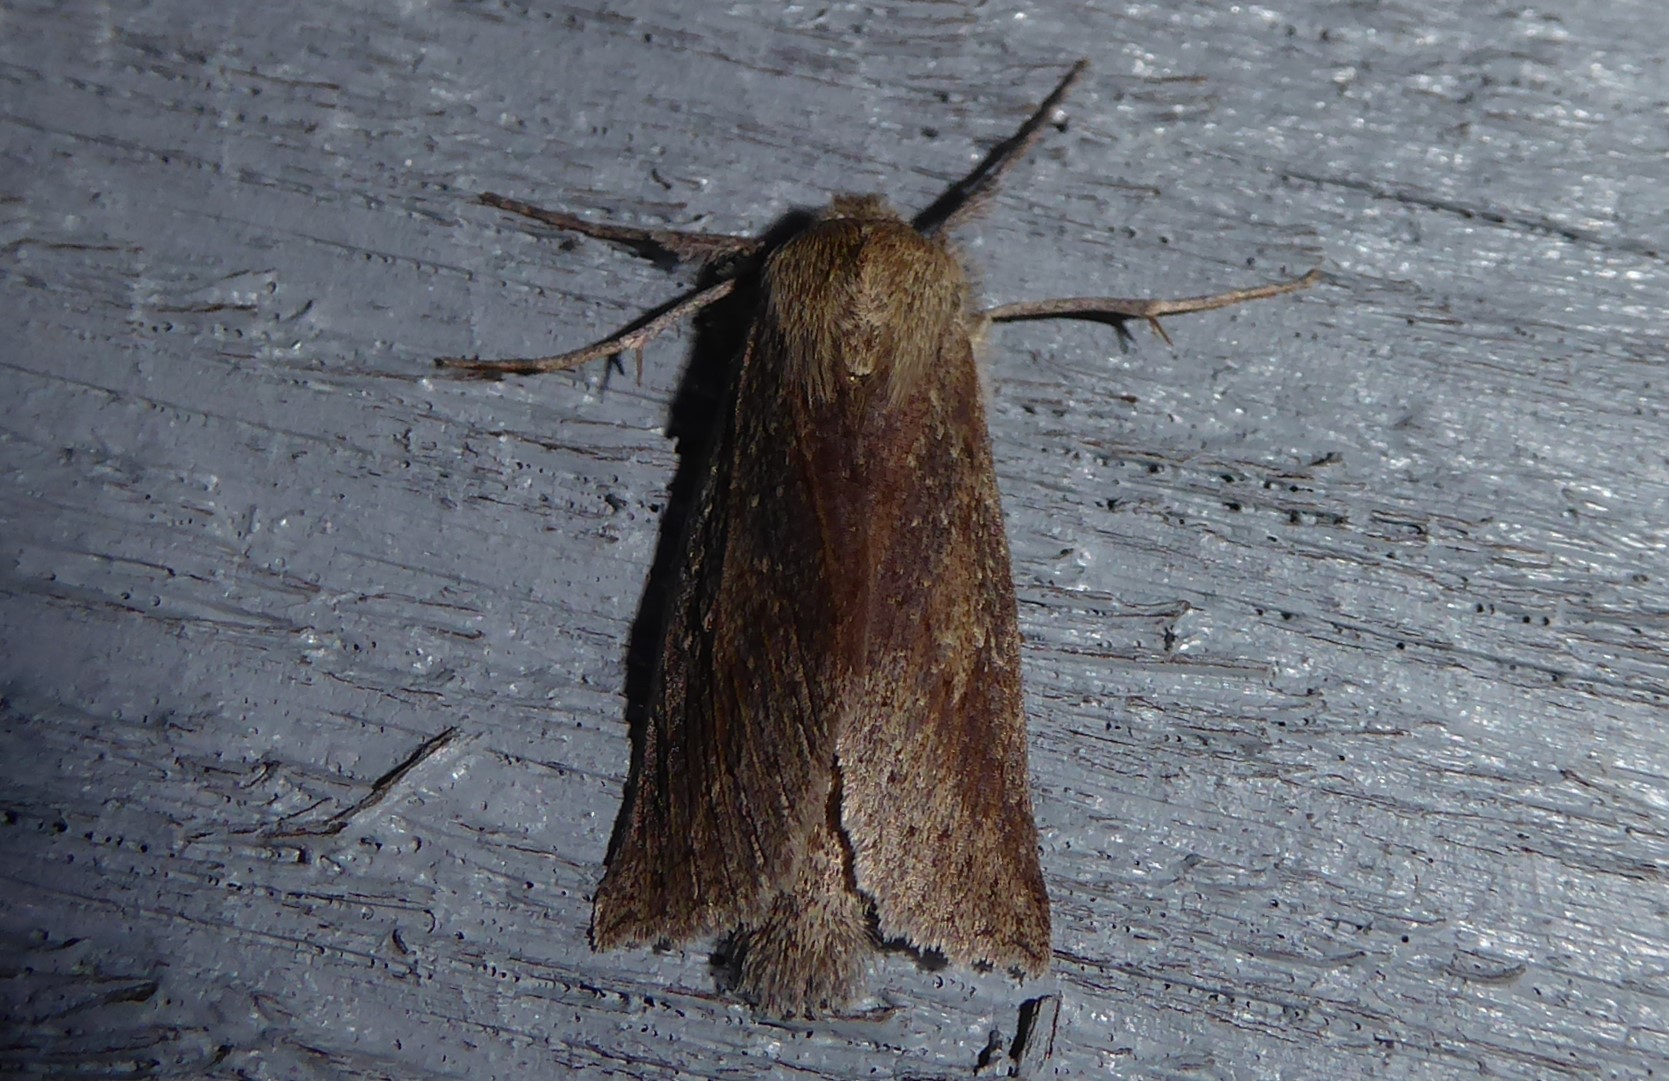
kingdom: Animalia
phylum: Arthropoda
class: Insecta
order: Lepidoptera
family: Geometridae
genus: Declana
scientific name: Declana leptomera
